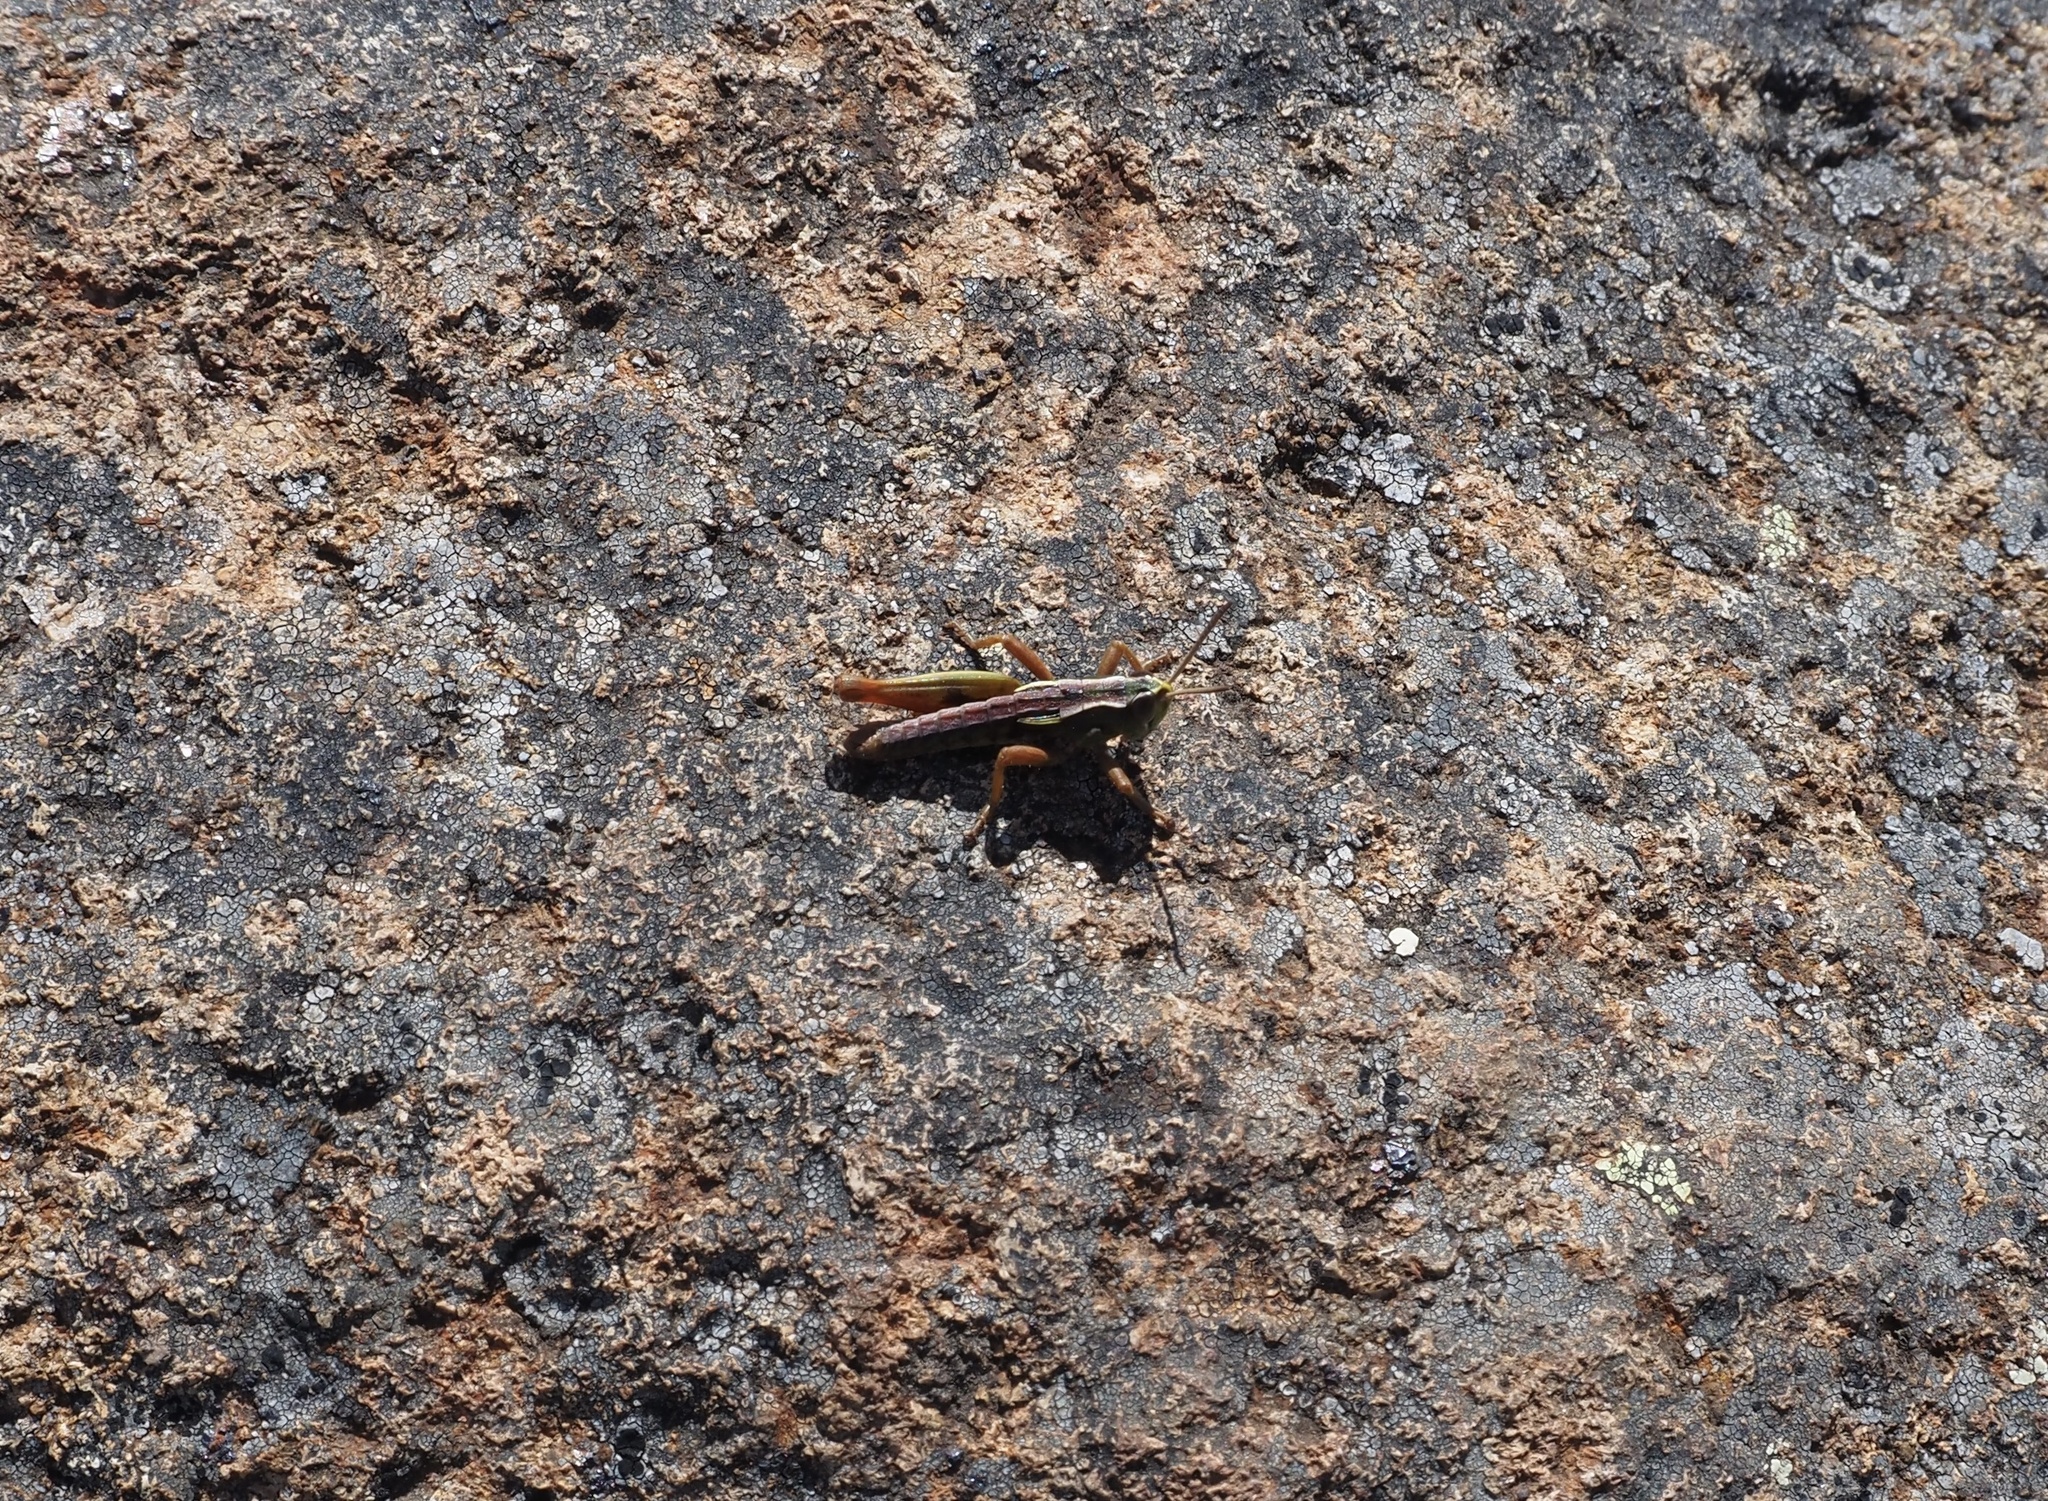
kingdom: Animalia
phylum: Arthropoda
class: Insecta
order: Orthoptera
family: Acrididae
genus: Russalpia
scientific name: Russalpia albertisi
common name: Tassie hopper
